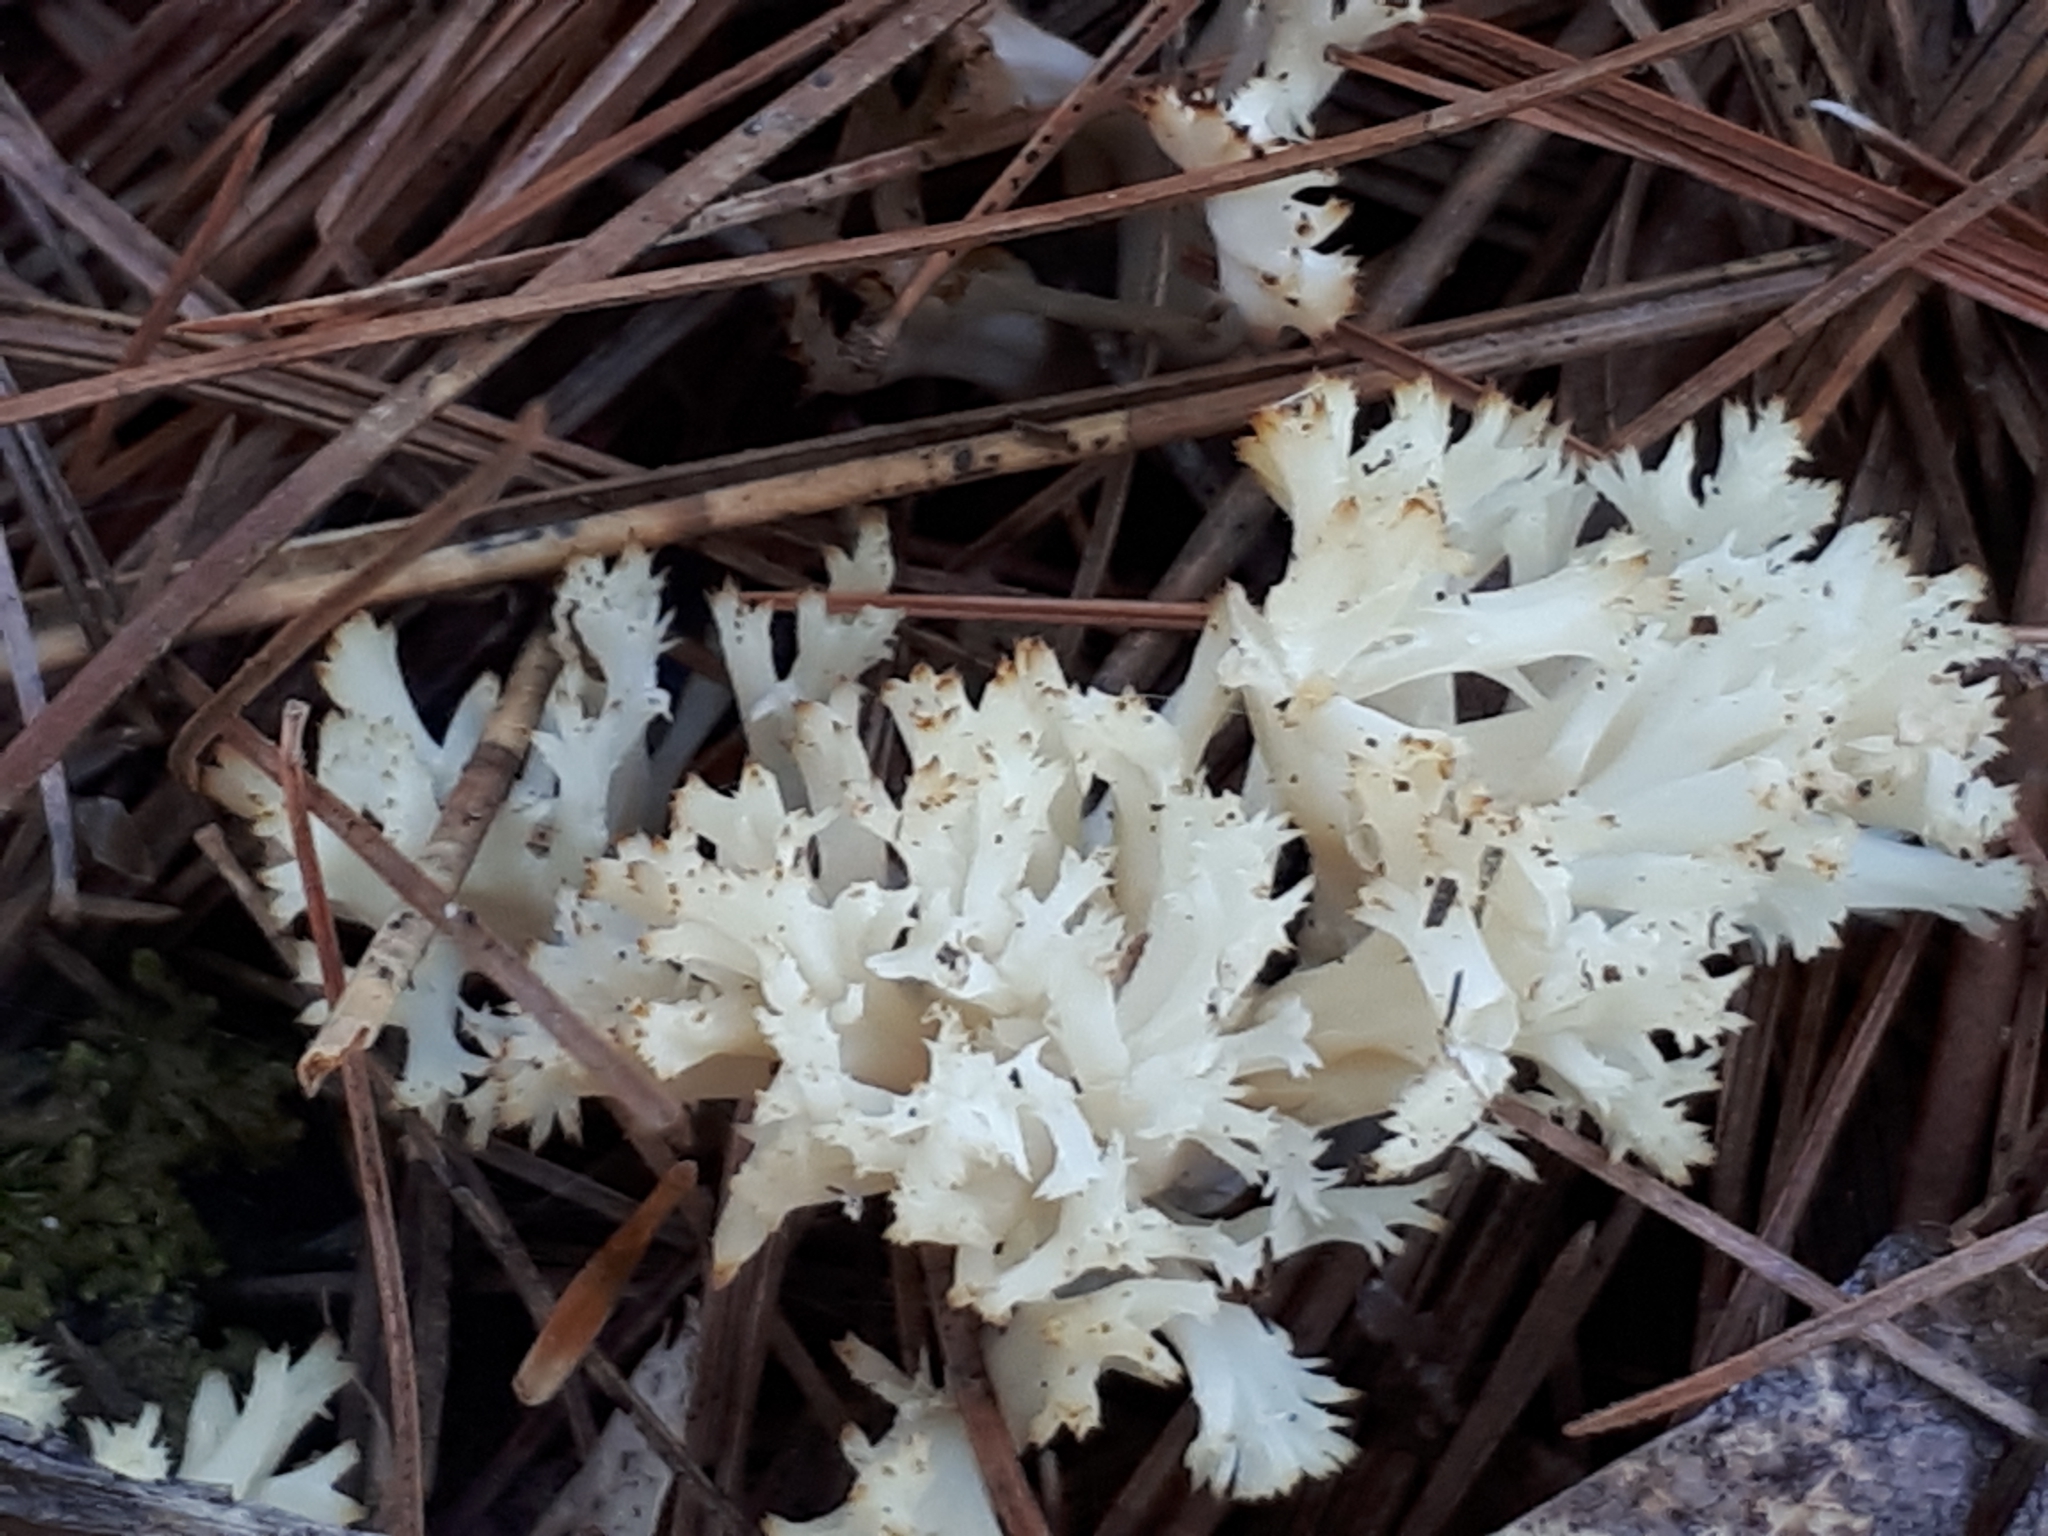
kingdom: Fungi
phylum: Basidiomycota
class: Agaricomycetes
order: Russulales
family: Auriscalpiaceae
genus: Artomyces
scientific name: Artomyces pyxidatus
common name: Crown-tipped coral fungus
